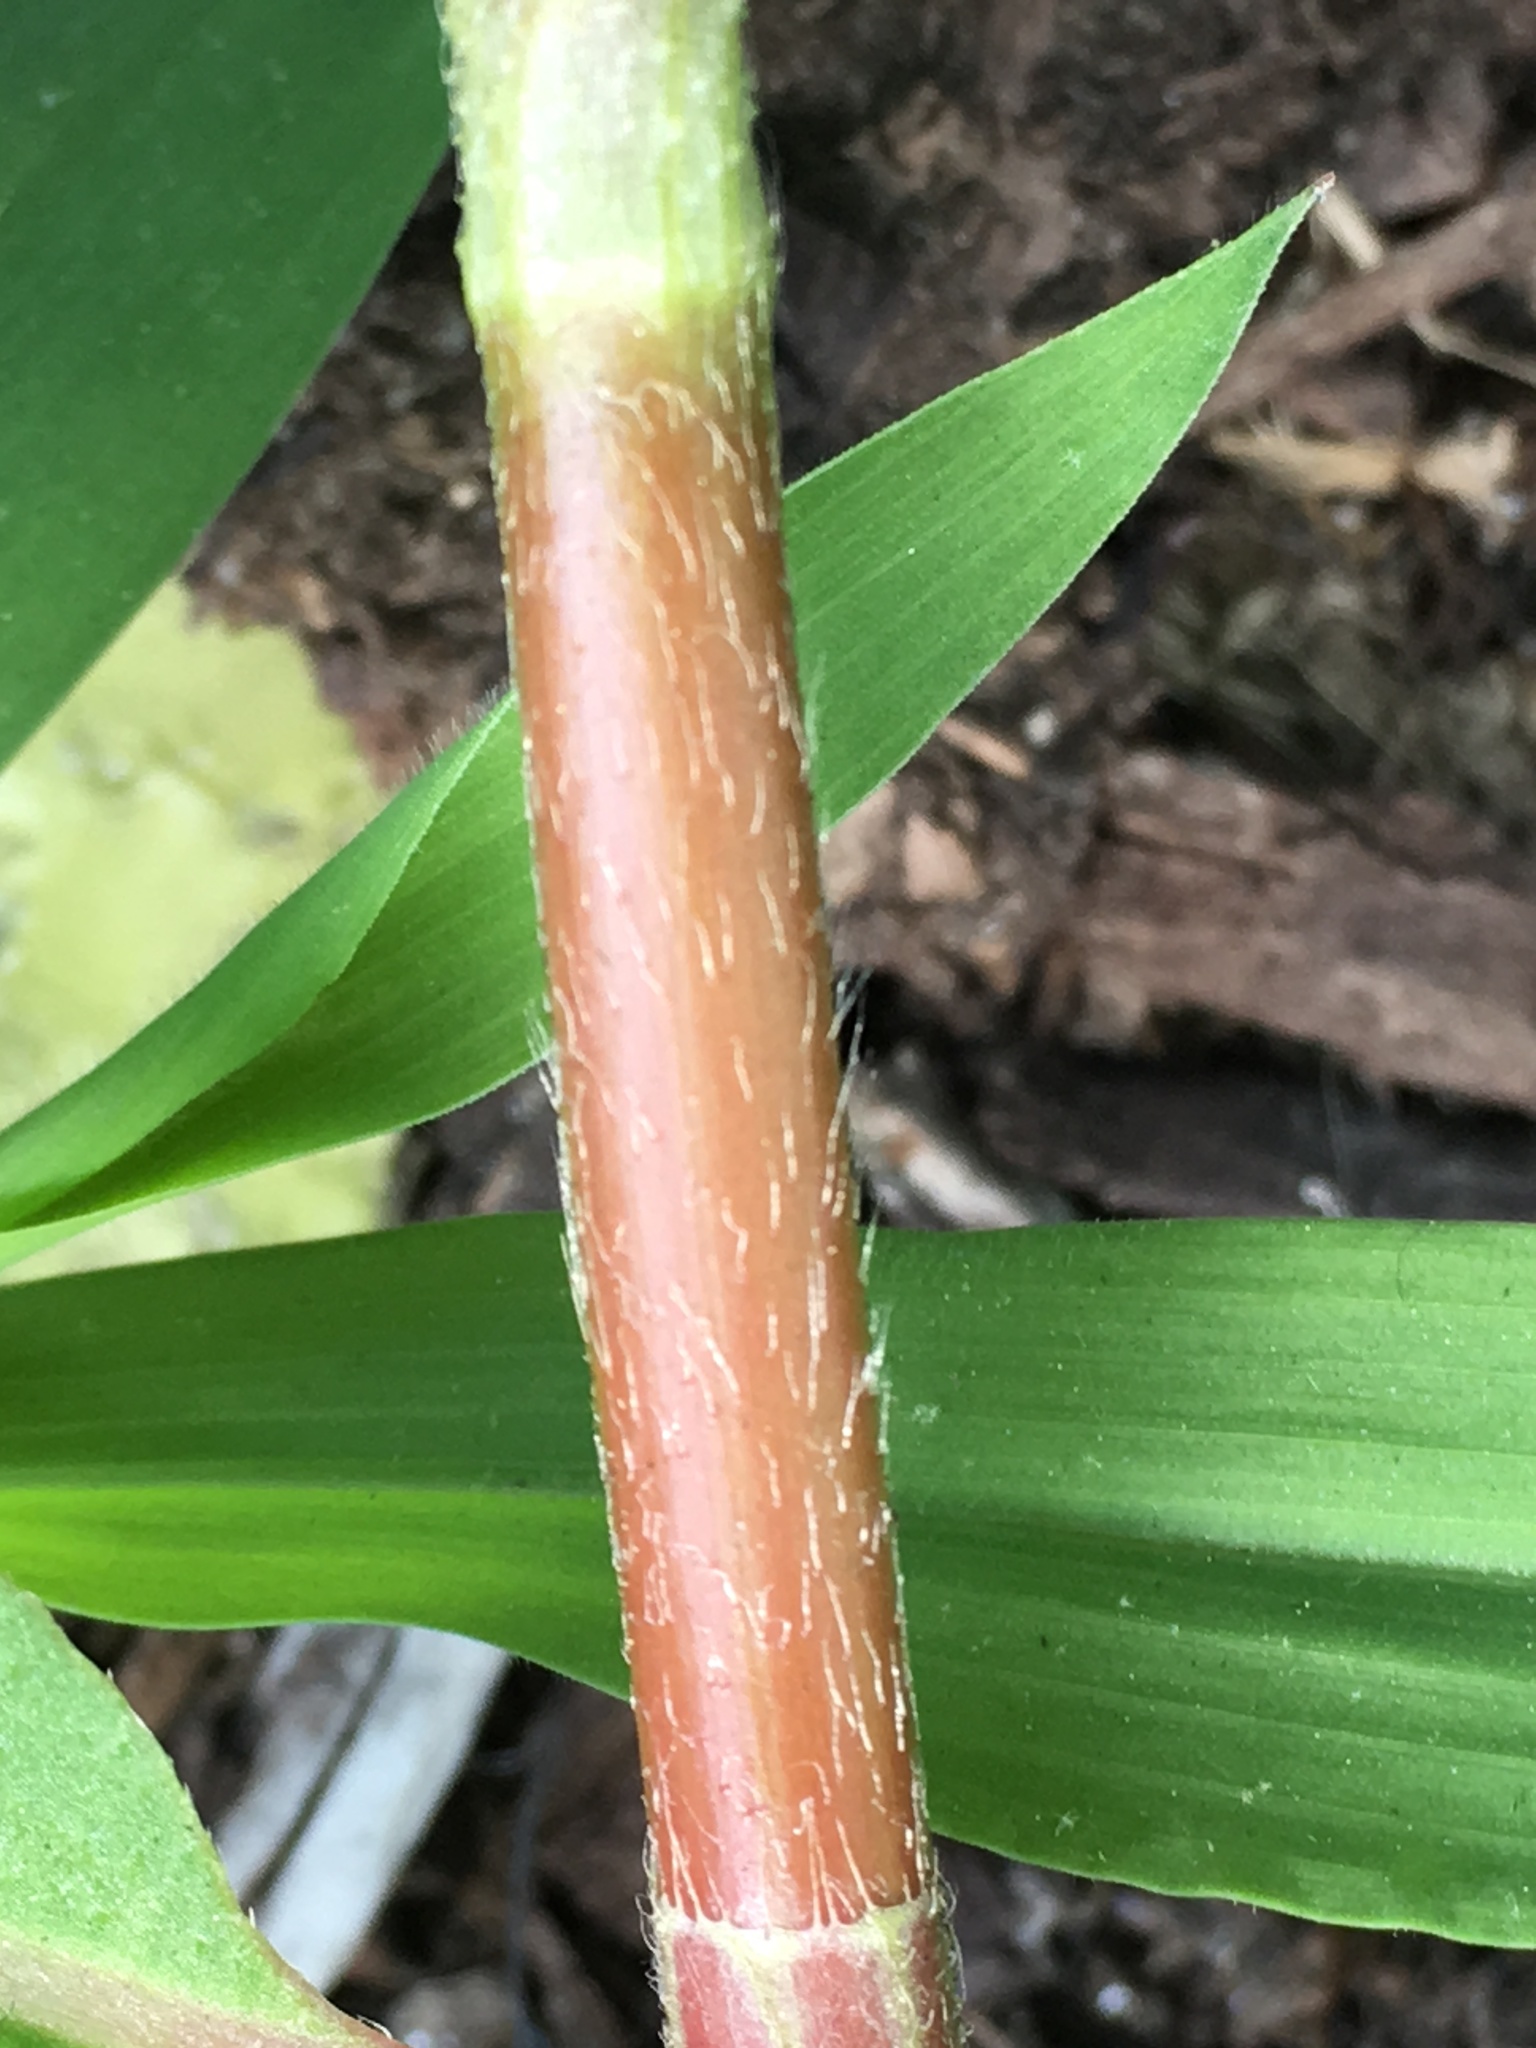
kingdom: Plantae
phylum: Tracheophyta
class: Magnoliopsida
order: Caryophyllales
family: Polygonaceae
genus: Persicaria
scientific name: Persicaria extremiorientalis
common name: Far-eastern smartweed
